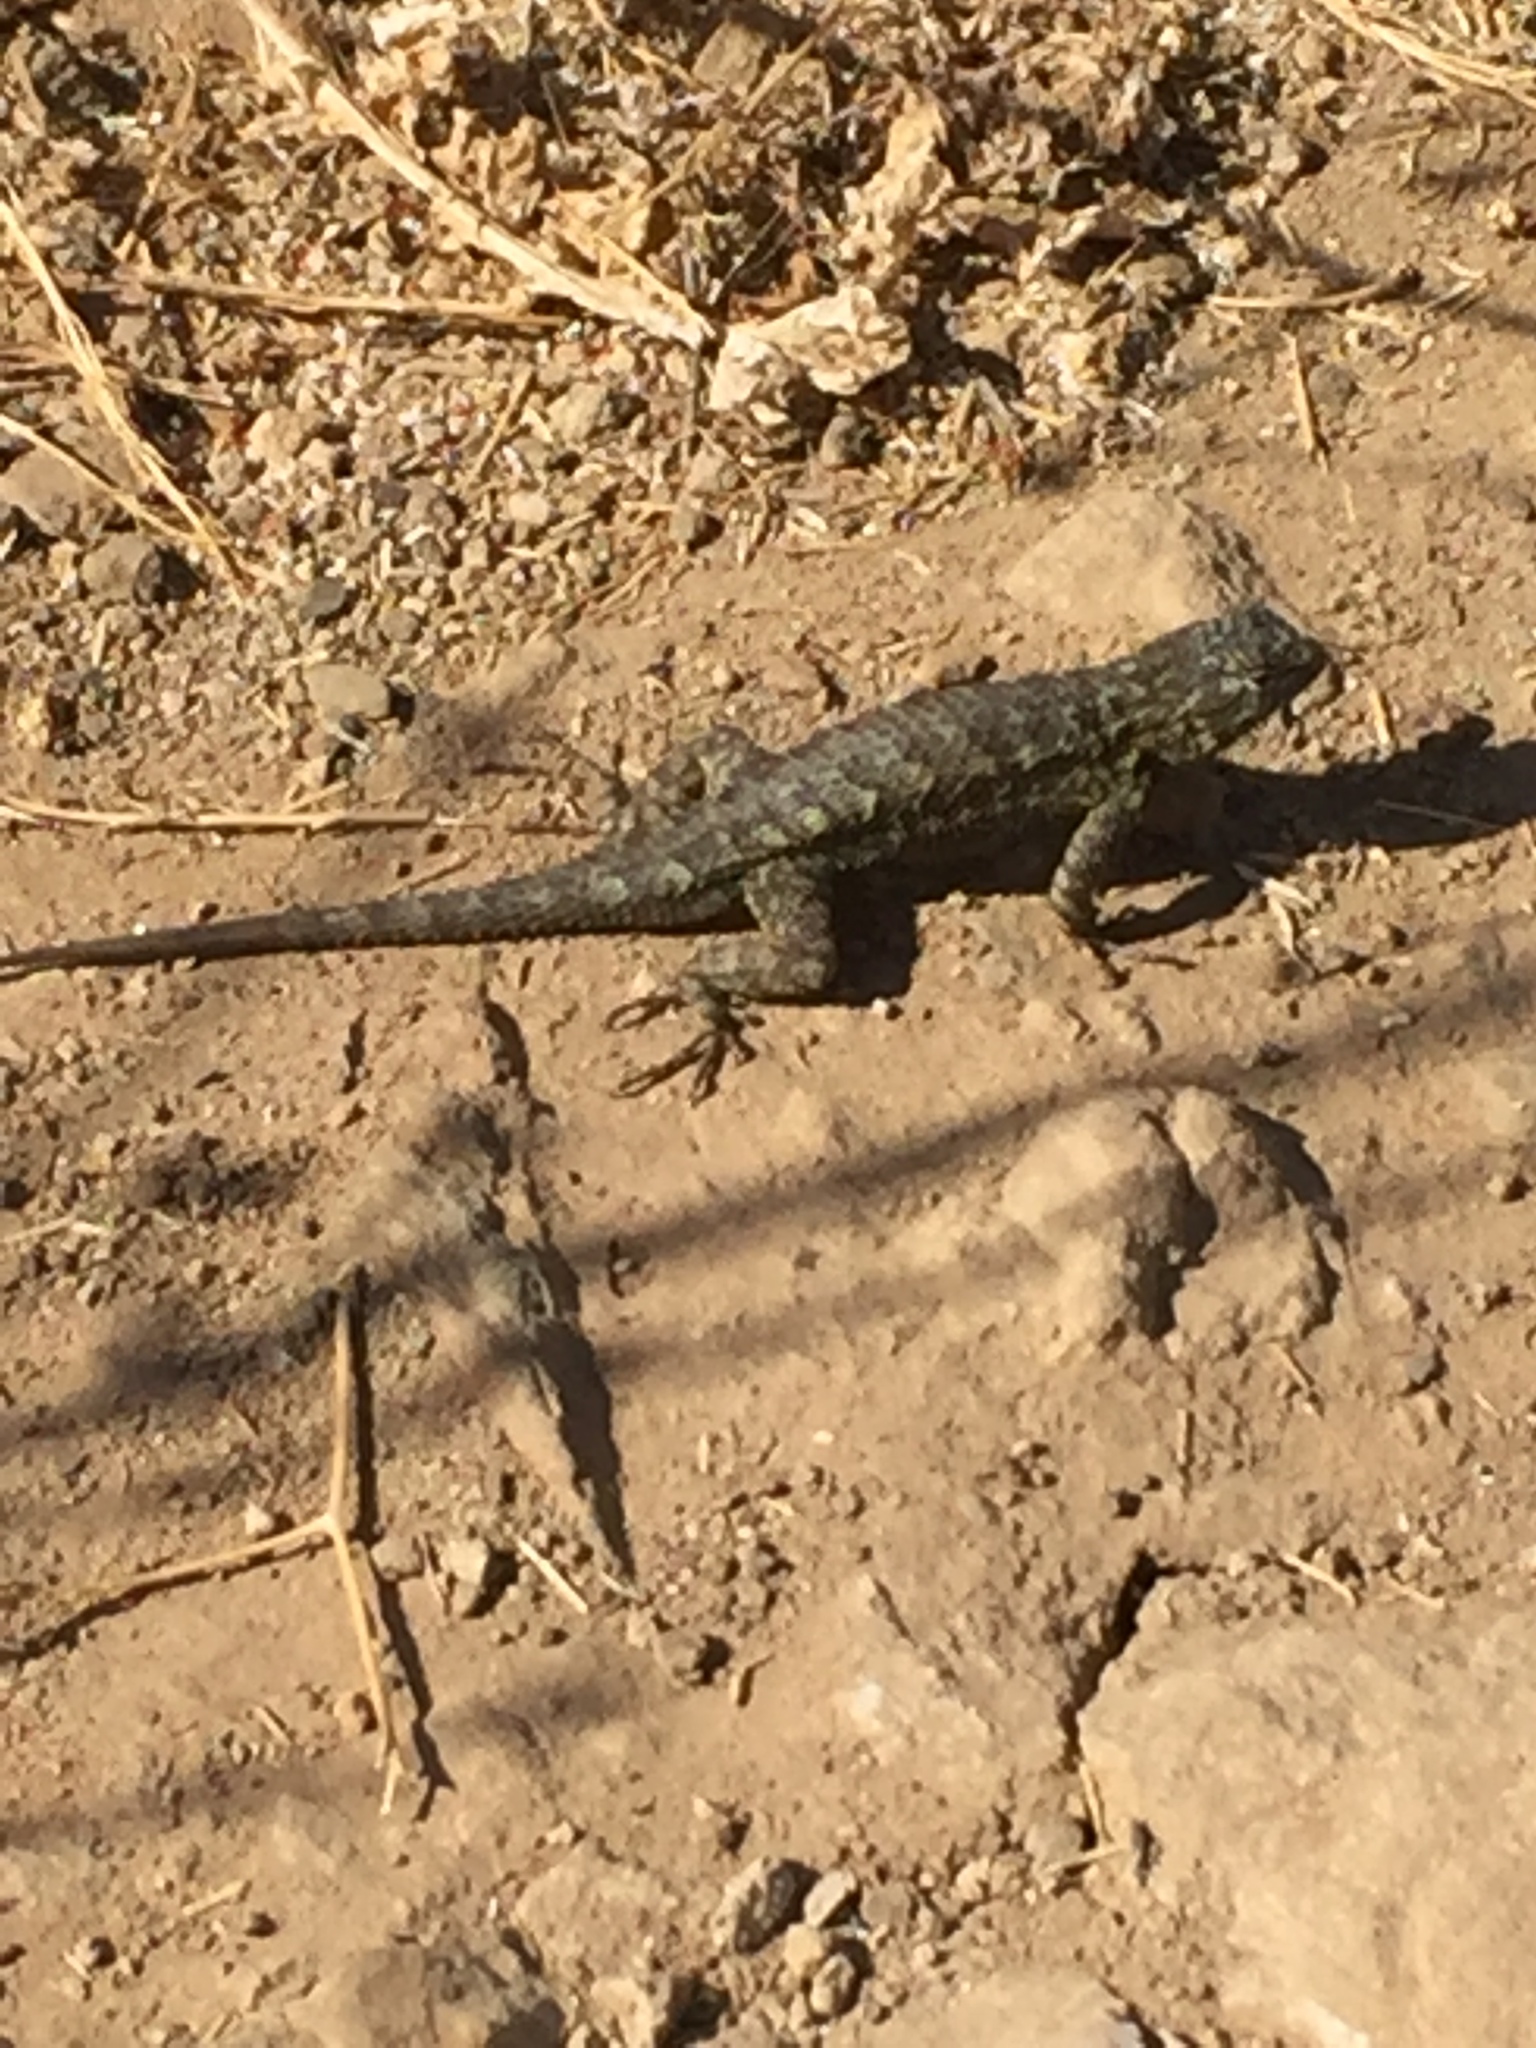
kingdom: Animalia
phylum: Chordata
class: Squamata
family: Phrynosomatidae
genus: Sceloporus
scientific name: Sceloporus occidentalis
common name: Western fence lizard
